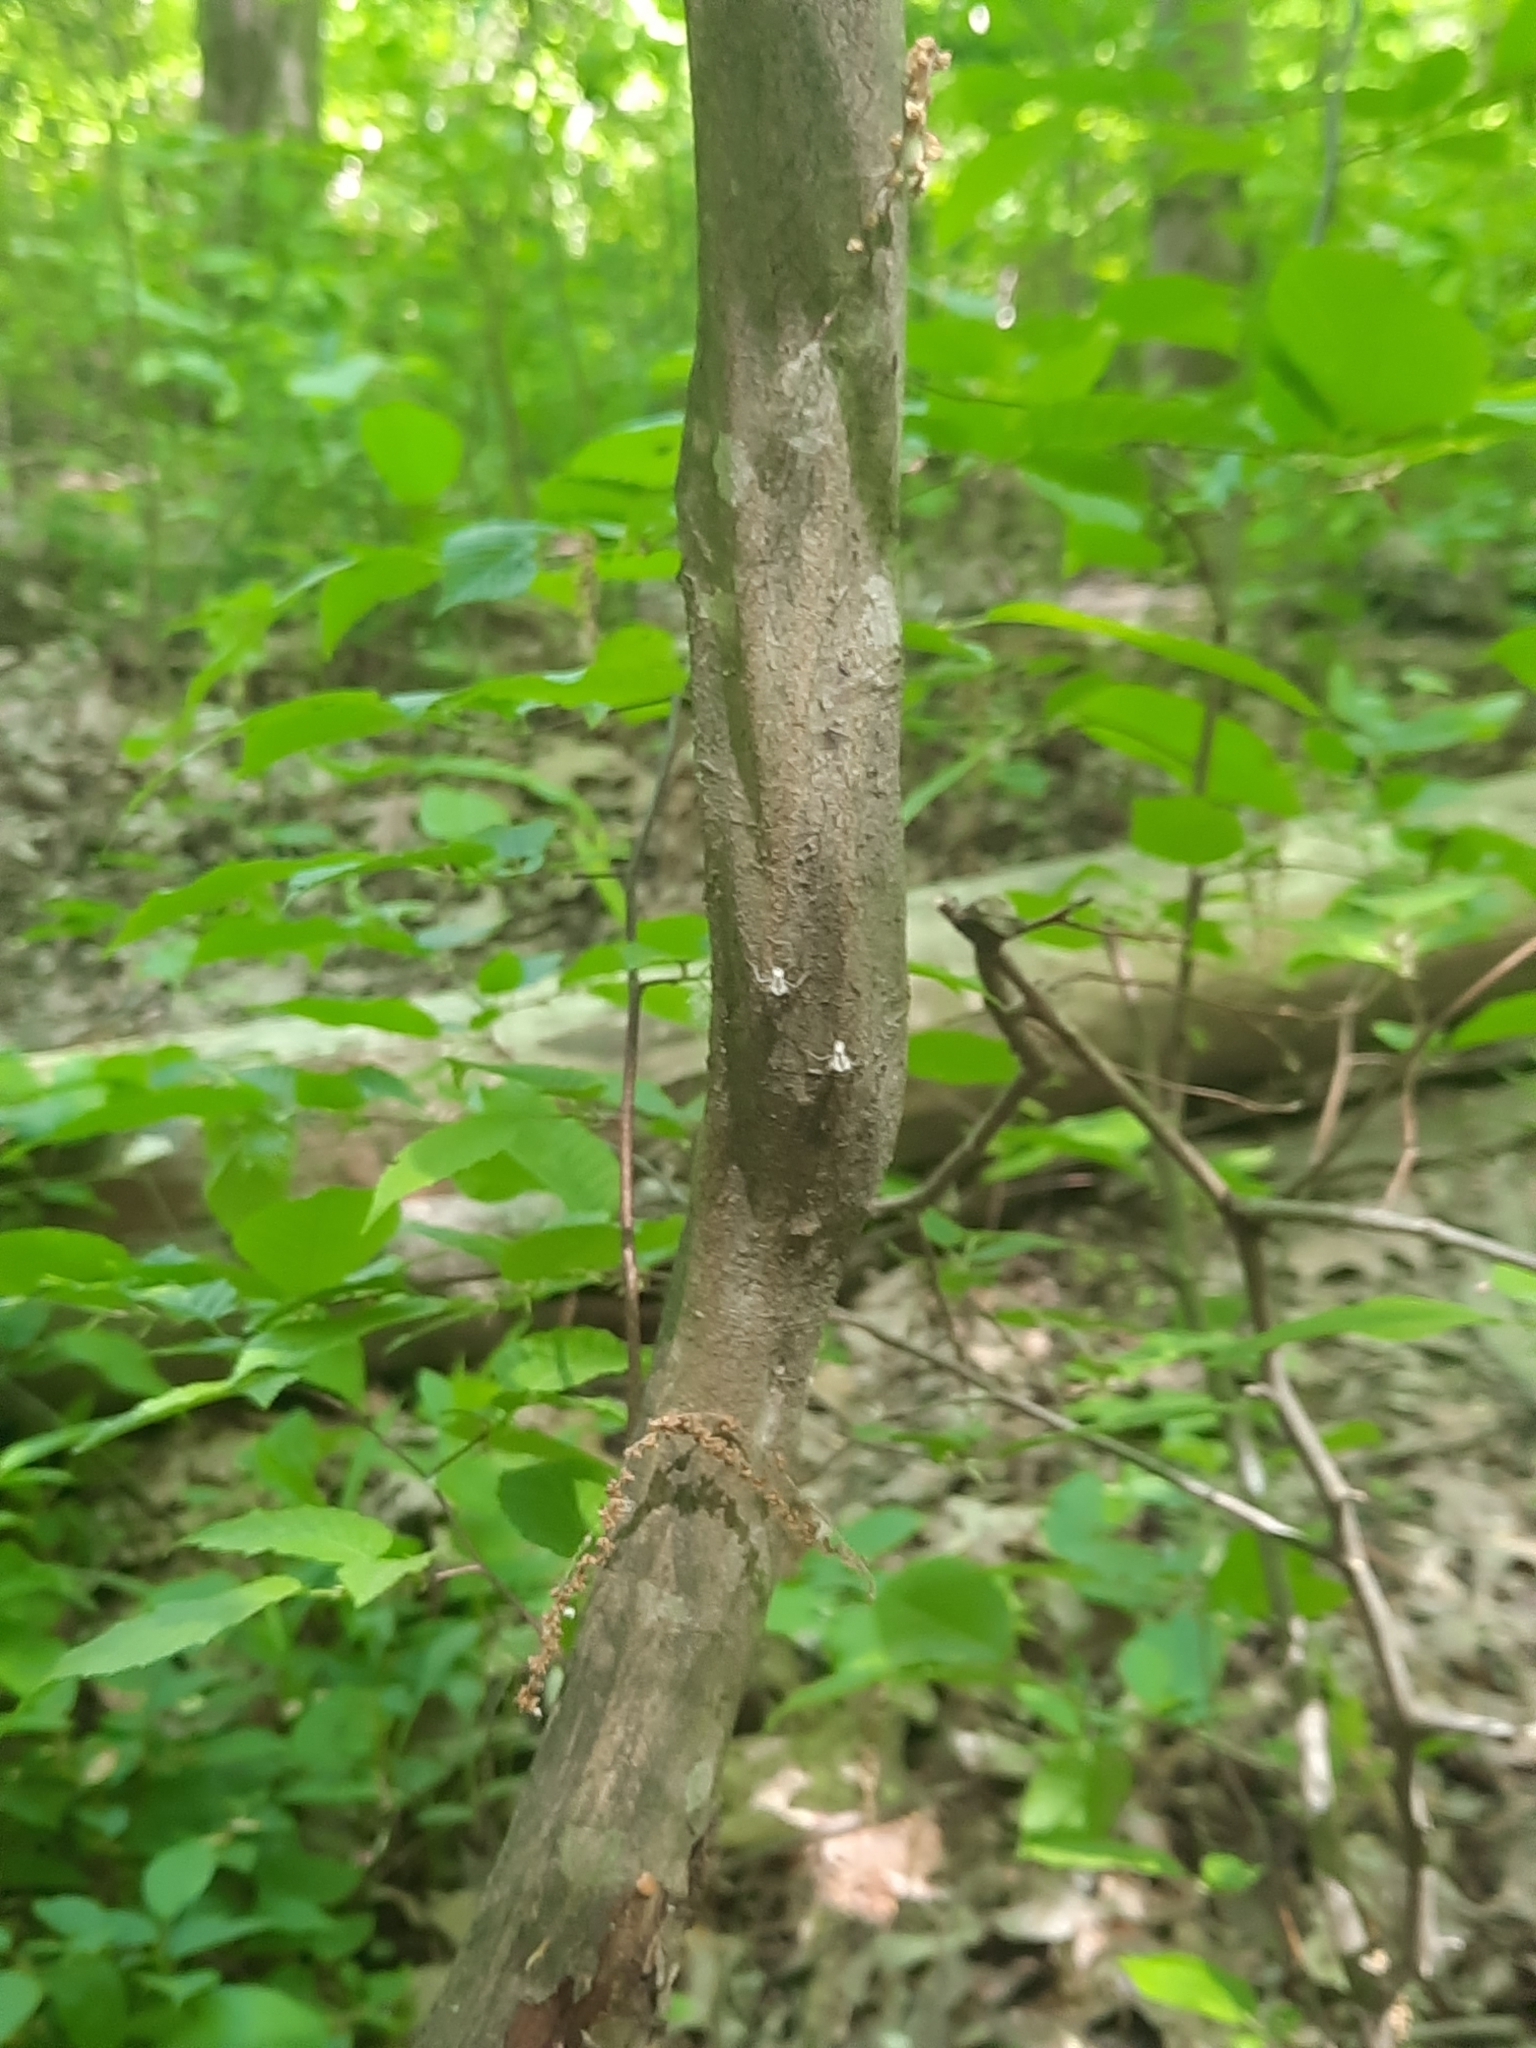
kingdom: Plantae
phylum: Tracheophyta
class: Magnoliopsida
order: Fagales
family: Betulaceae
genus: Carpinus
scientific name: Carpinus caroliniana
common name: American hornbeam
